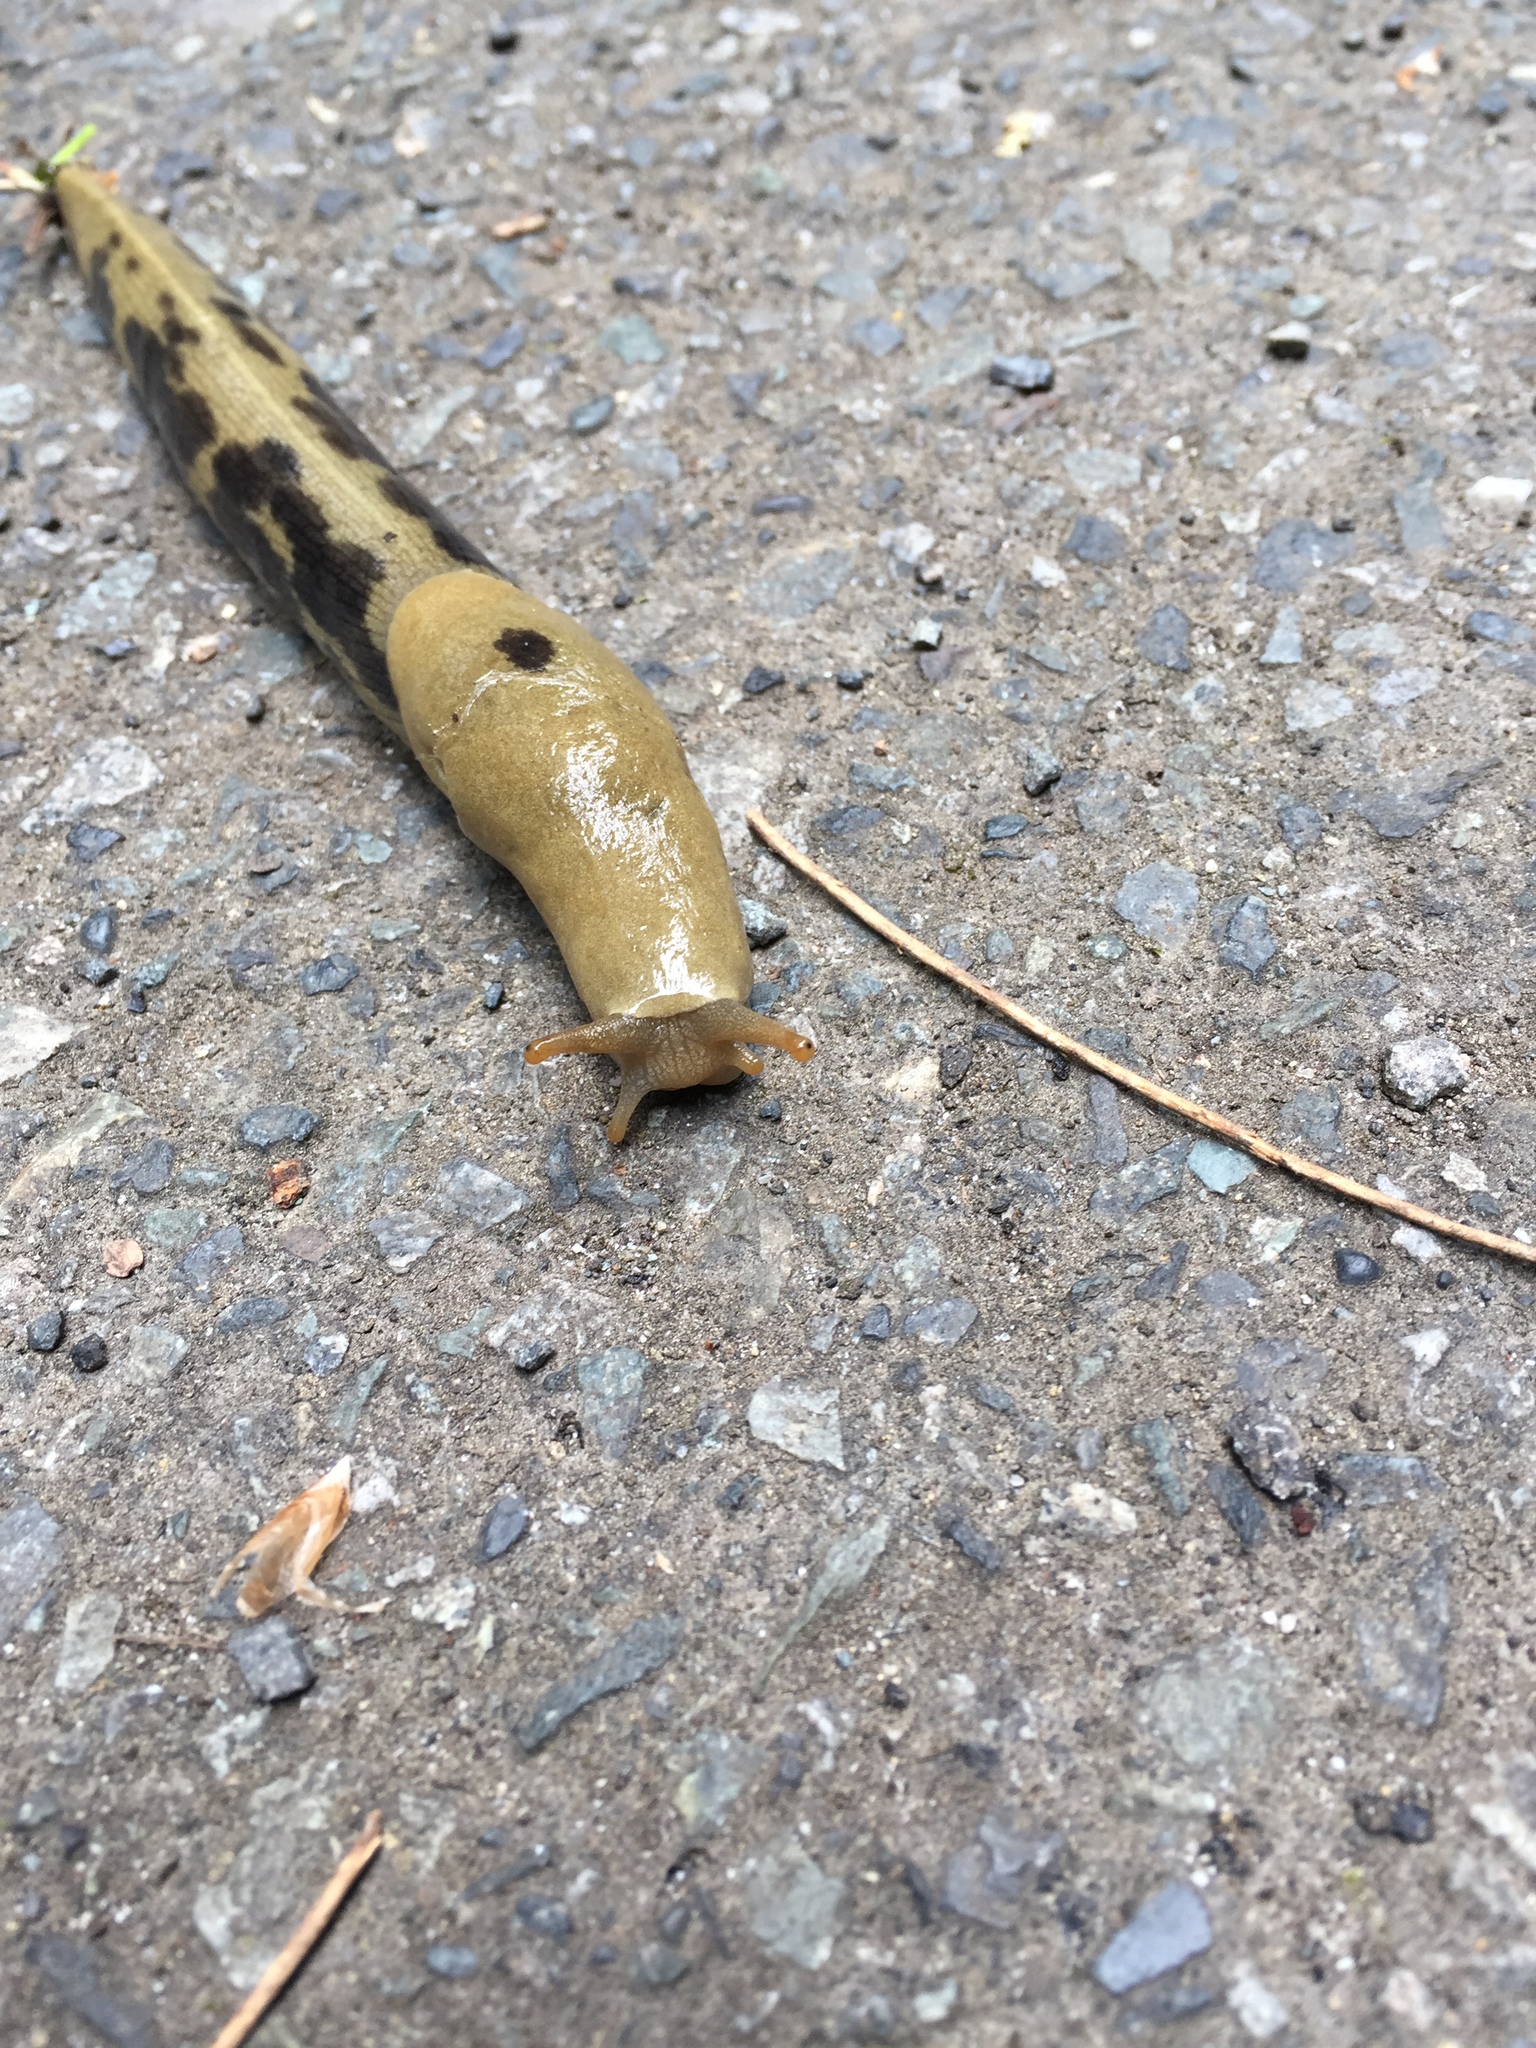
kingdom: Animalia
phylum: Mollusca
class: Gastropoda
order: Stylommatophora
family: Ariolimacidae
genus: Ariolimax
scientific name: Ariolimax columbianus
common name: Pacific banana slug
